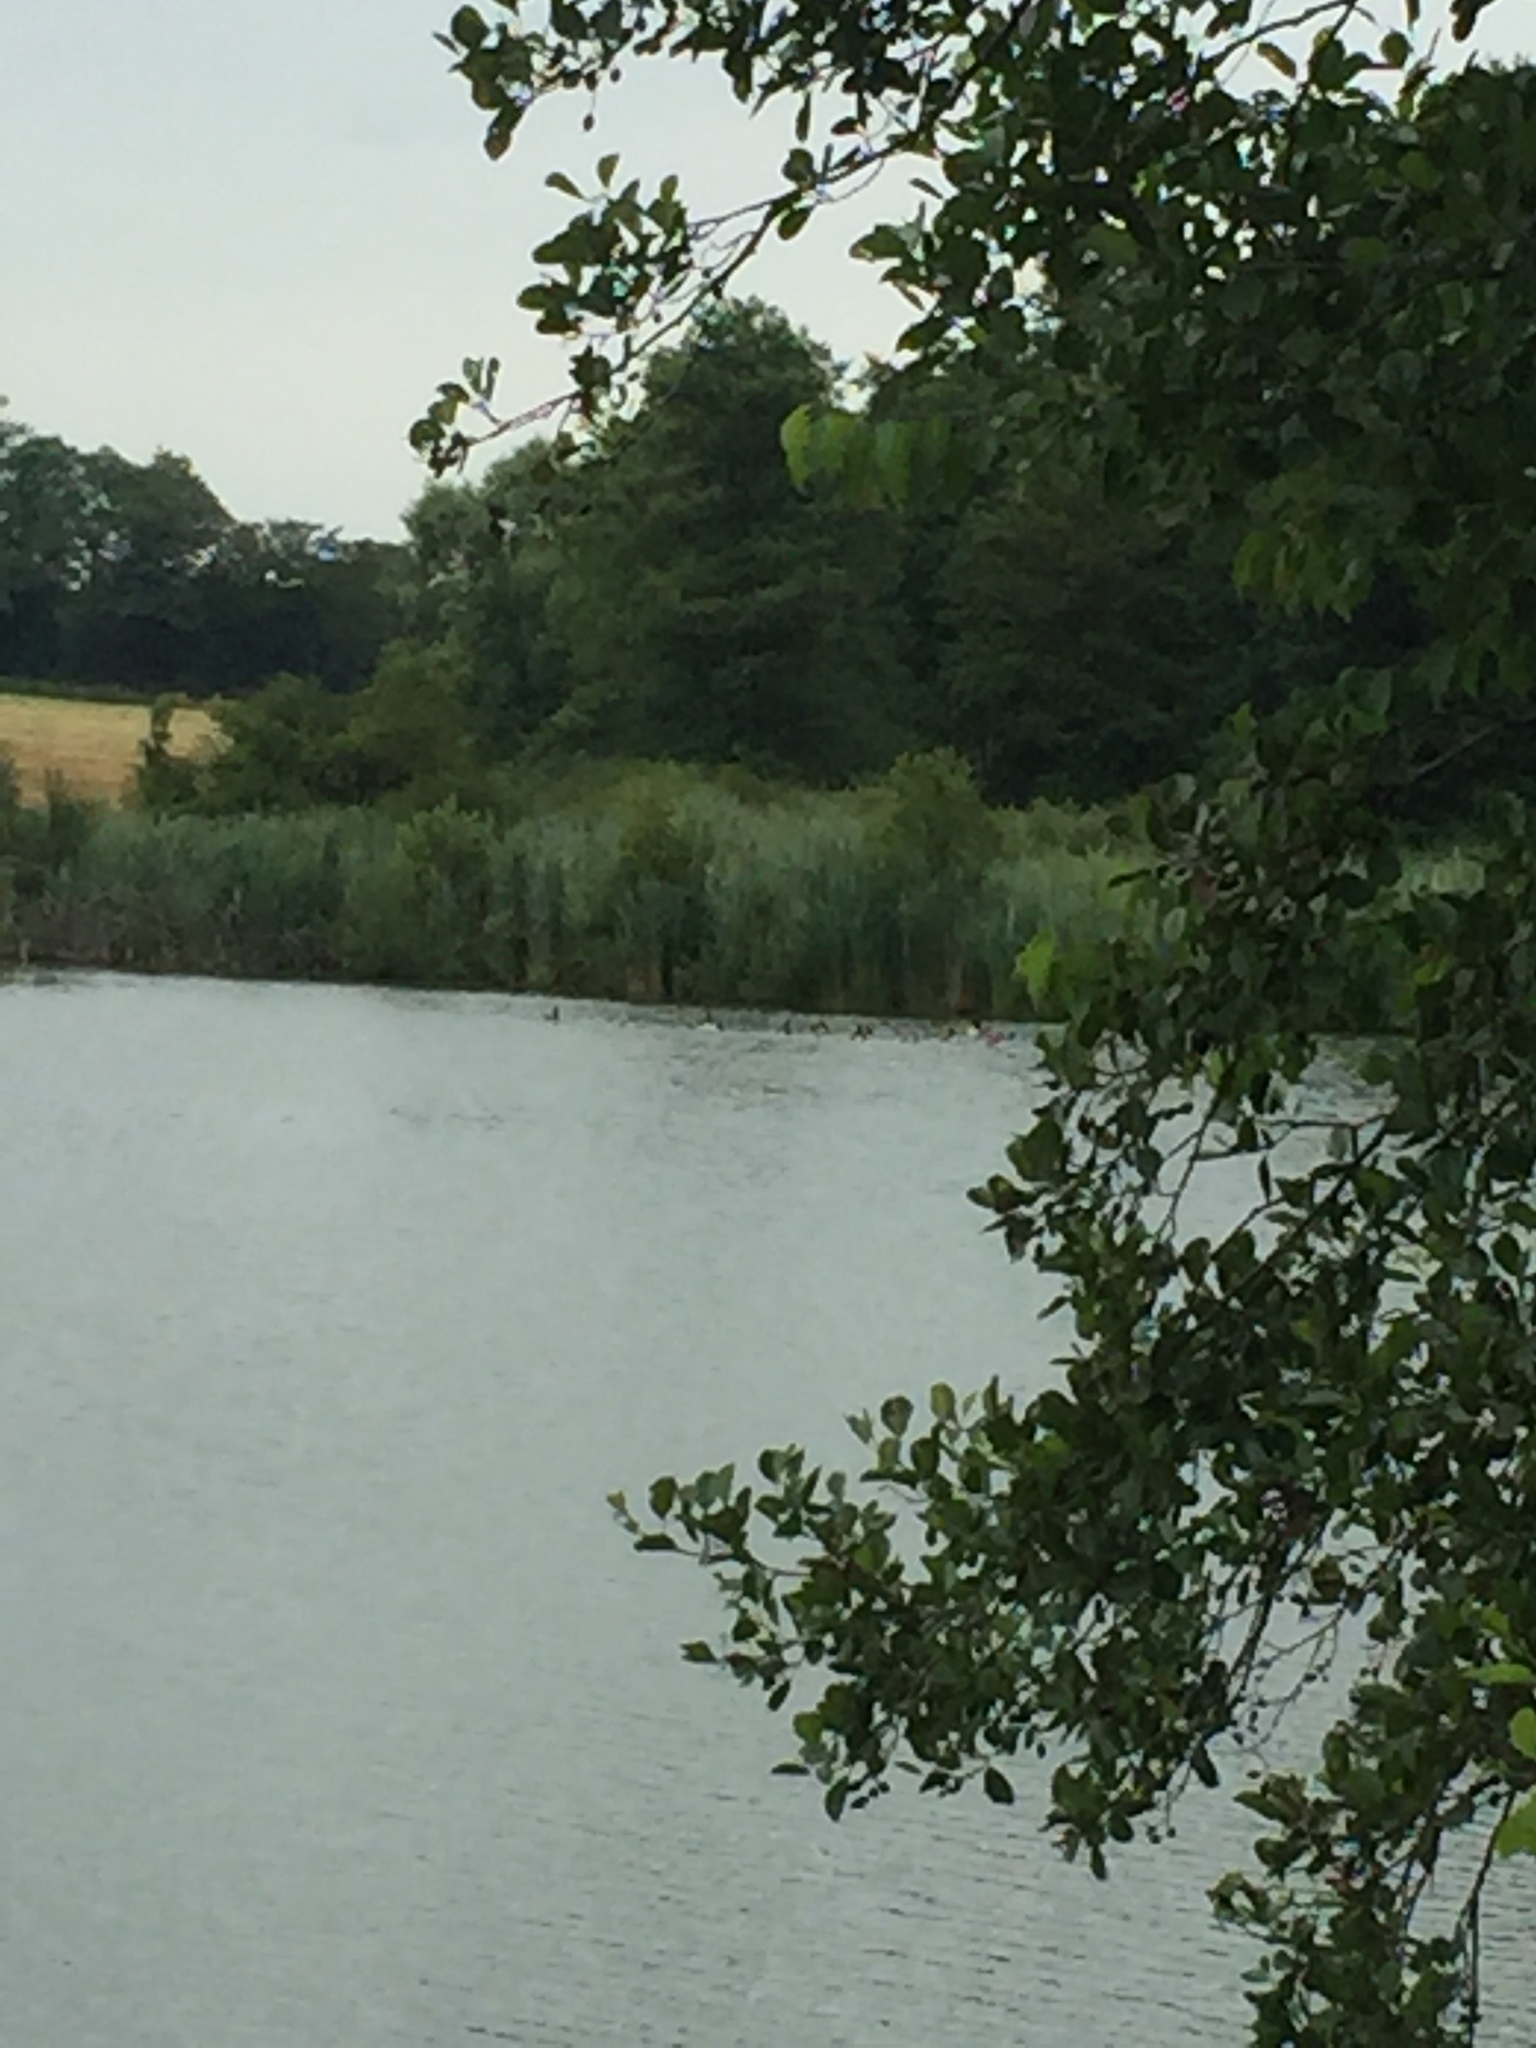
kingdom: Animalia
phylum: Chordata
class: Aves
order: Anseriformes
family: Anatidae
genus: Branta
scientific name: Branta canadensis
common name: Canada goose
